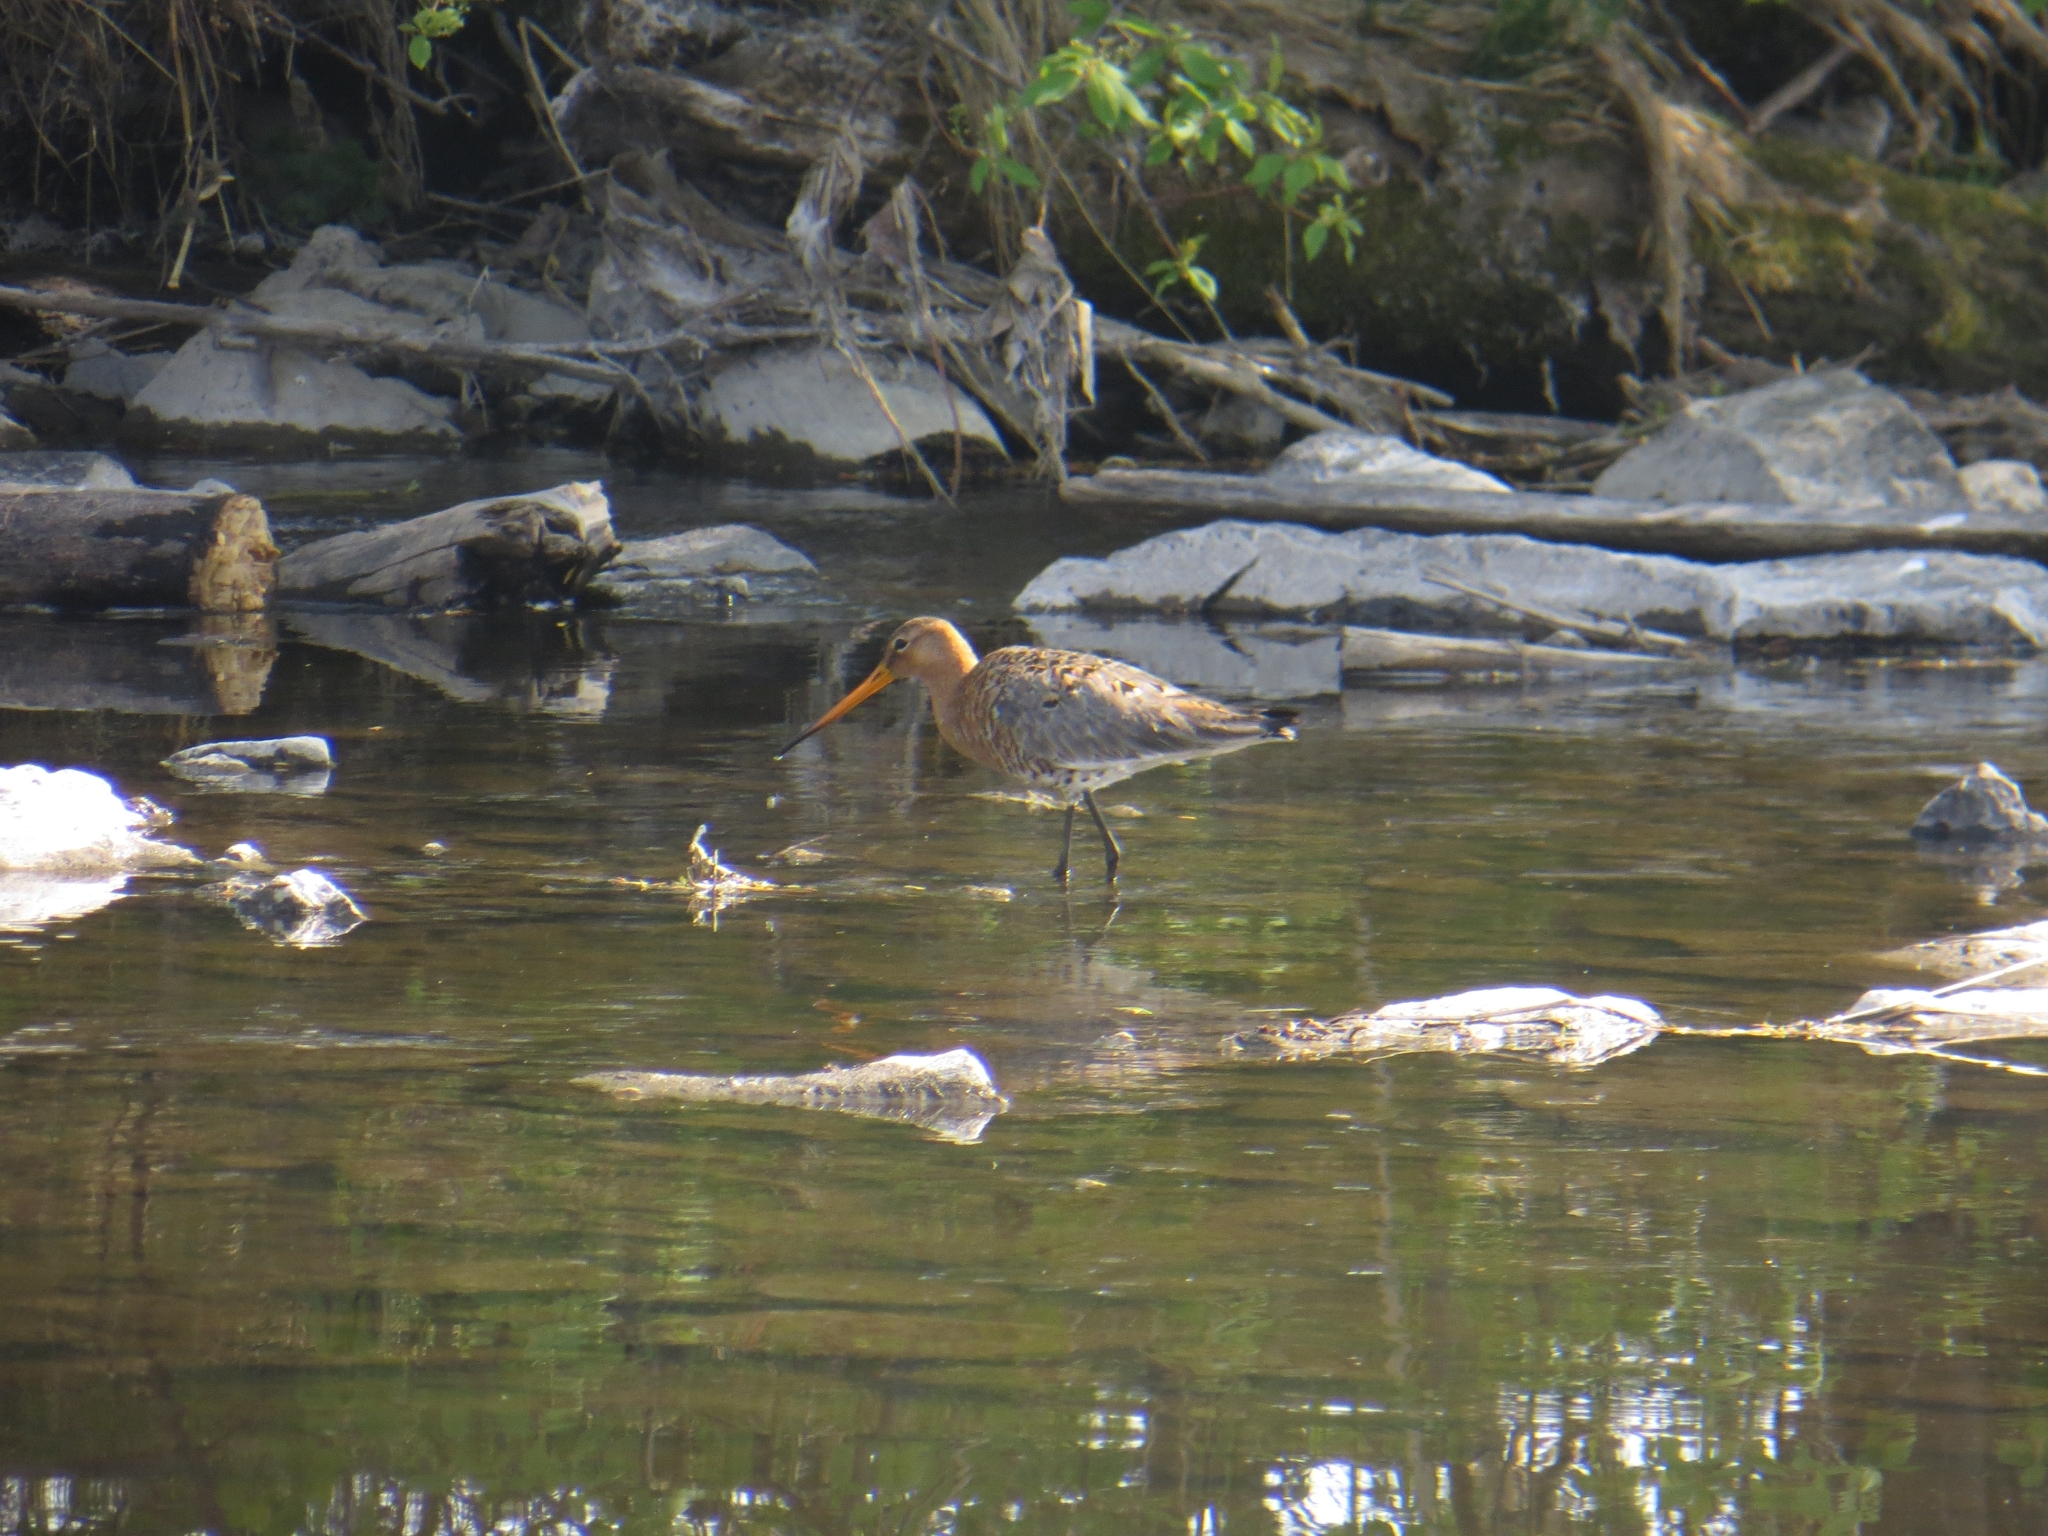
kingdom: Animalia
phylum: Chordata
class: Aves
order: Charadriiformes
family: Scolopacidae
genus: Limosa
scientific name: Limosa limosa
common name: Black-tailed godwit
